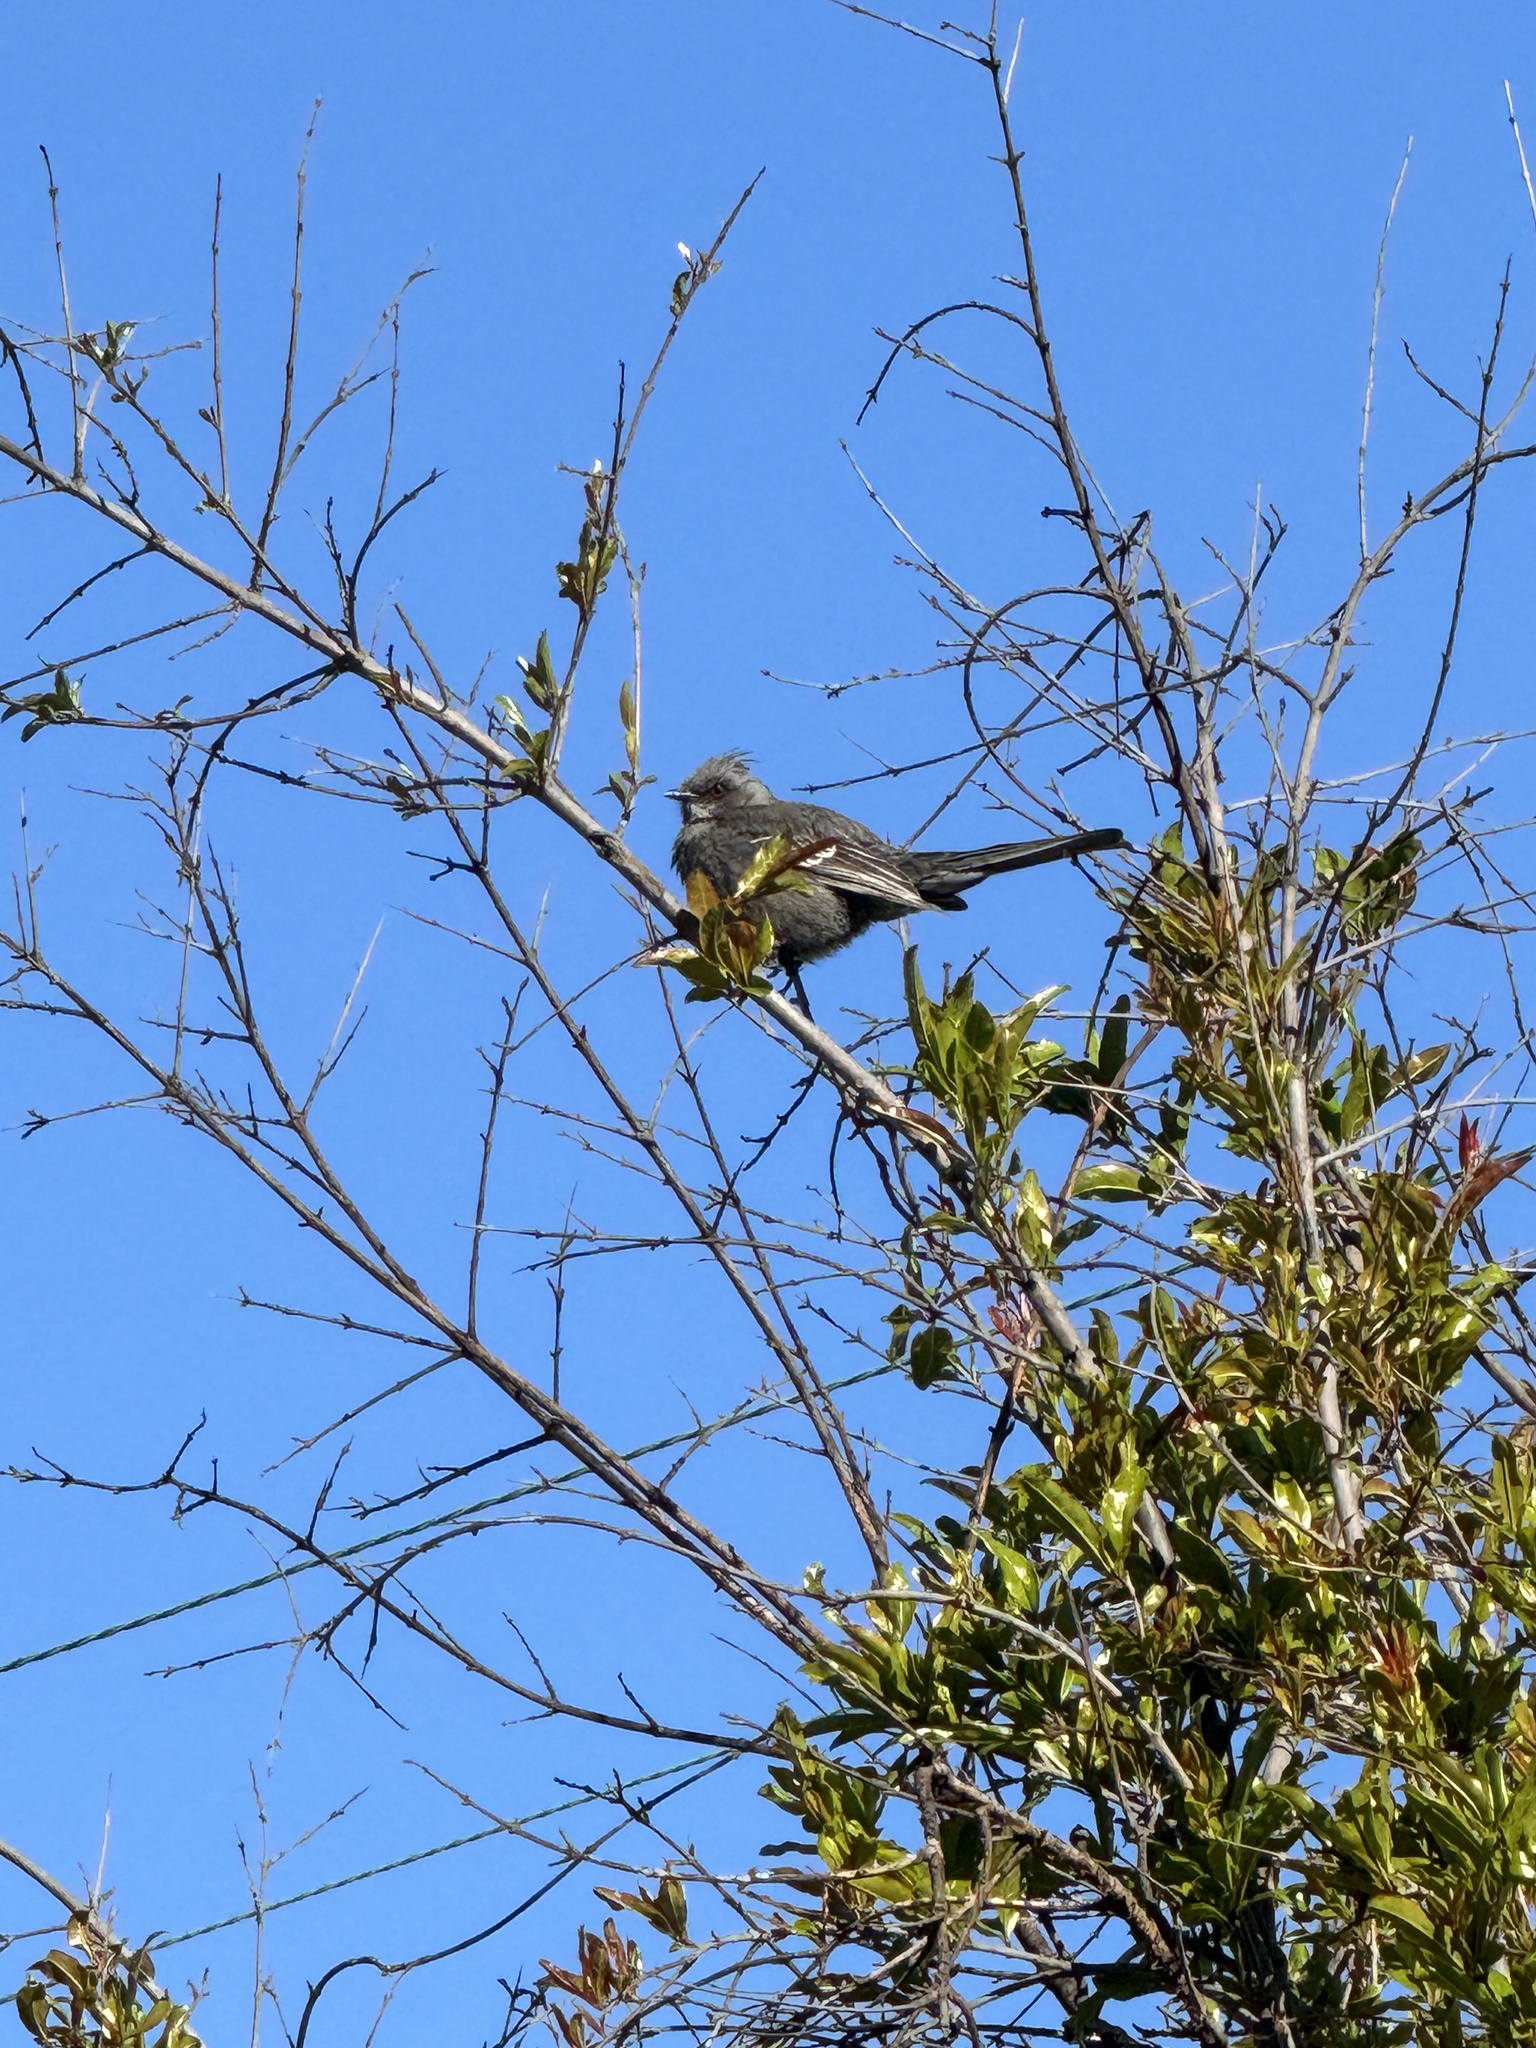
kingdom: Animalia
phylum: Chordata
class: Aves
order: Passeriformes
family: Ptilogonatidae
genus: Phainopepla
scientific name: Phainopepla nitens
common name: Phainopepla
